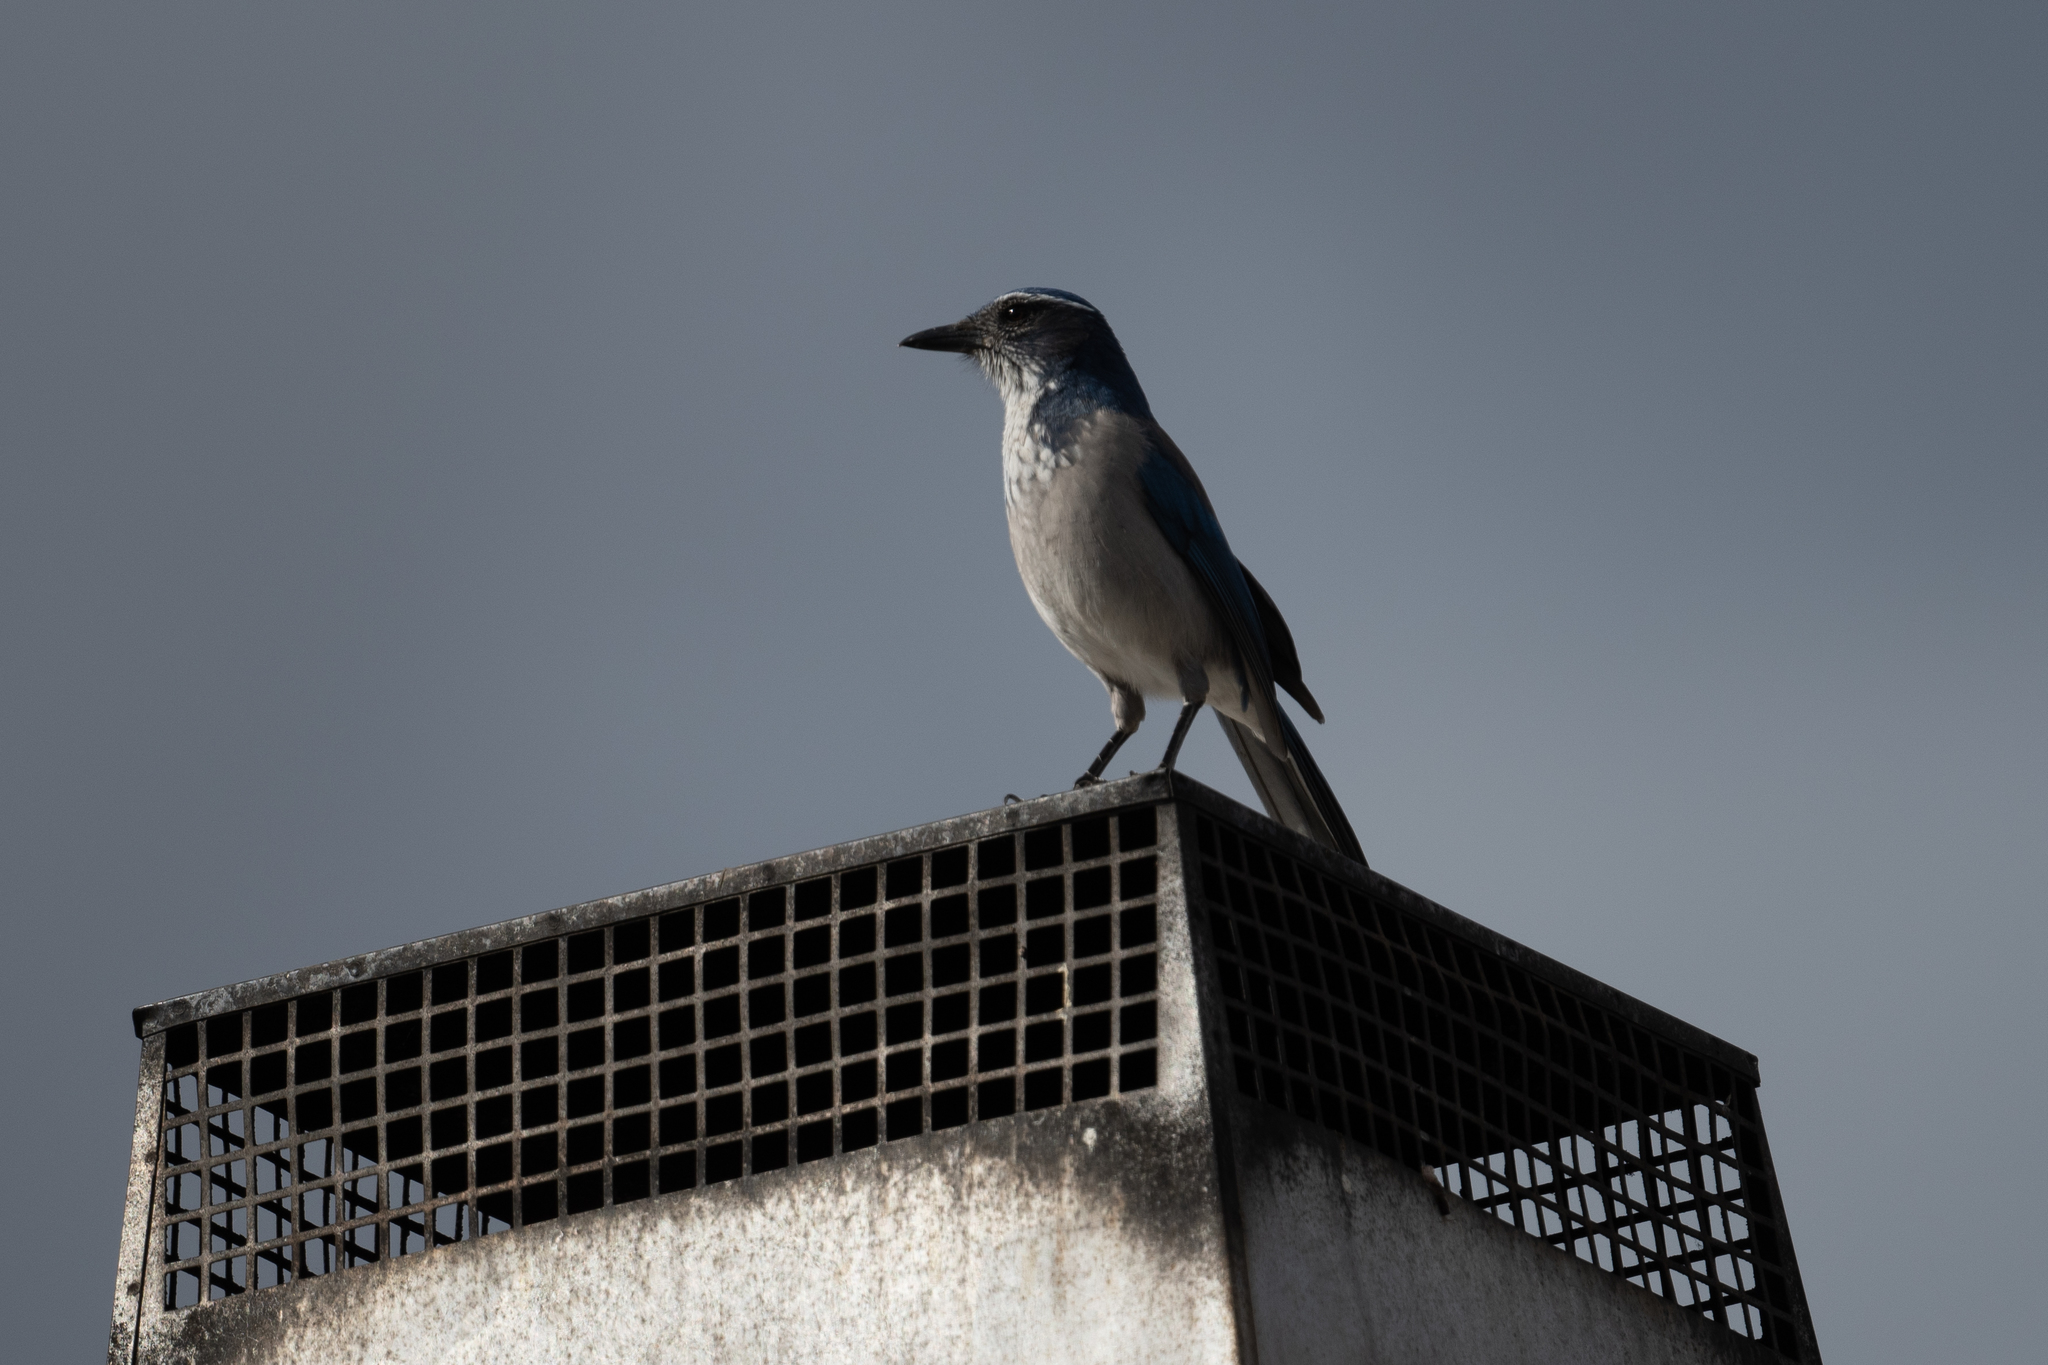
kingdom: Animalia
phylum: Chordata
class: Aves
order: Passeriformes
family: Corvidae
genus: Aphelocoma
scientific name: Aphelocoma californica
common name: California scrub-jay
